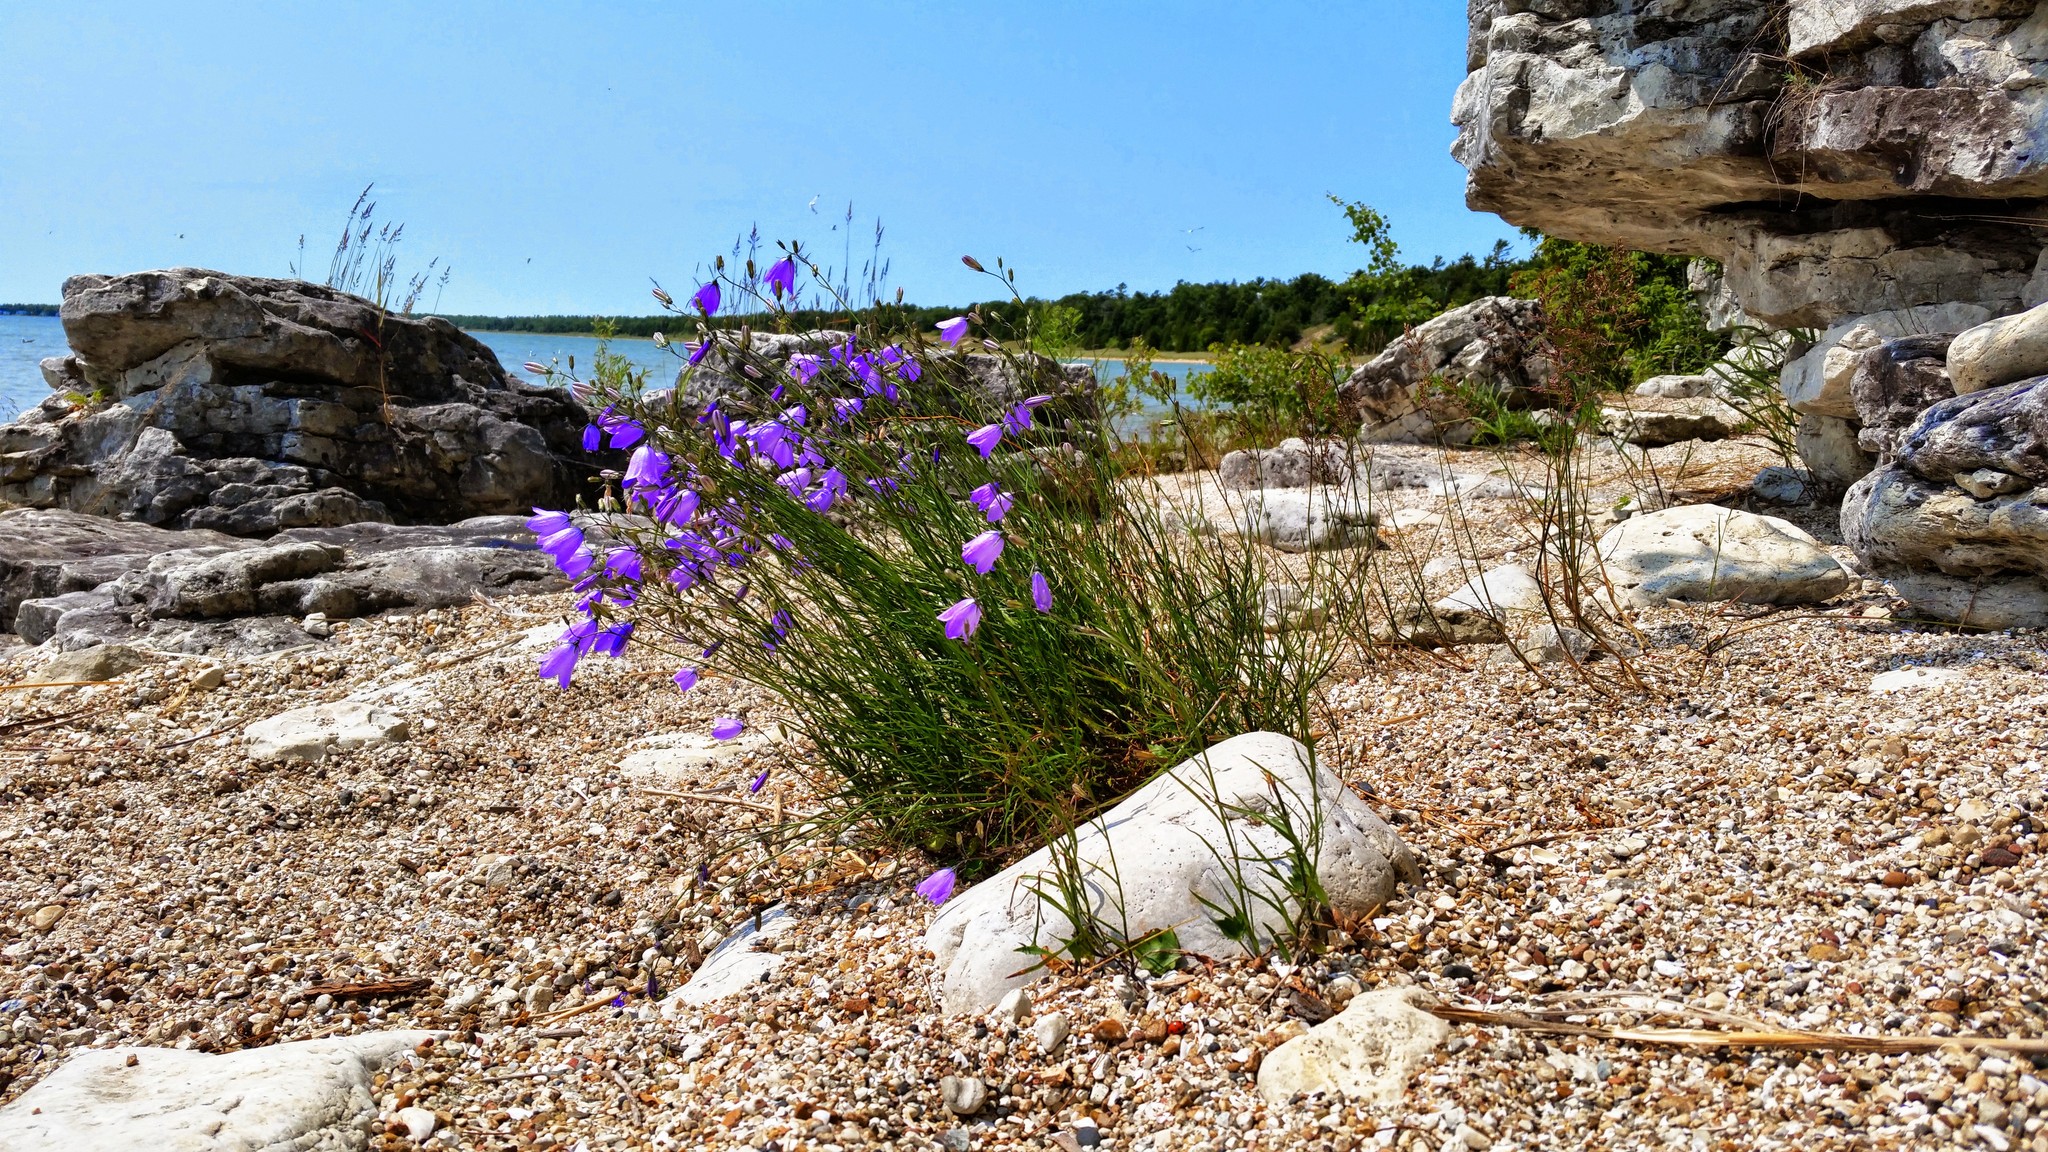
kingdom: Plantae
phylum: Tracheophyta
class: Magnoliopsida
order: Asterales
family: Campanulaceae
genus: Campanula
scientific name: Campanula intercedens
